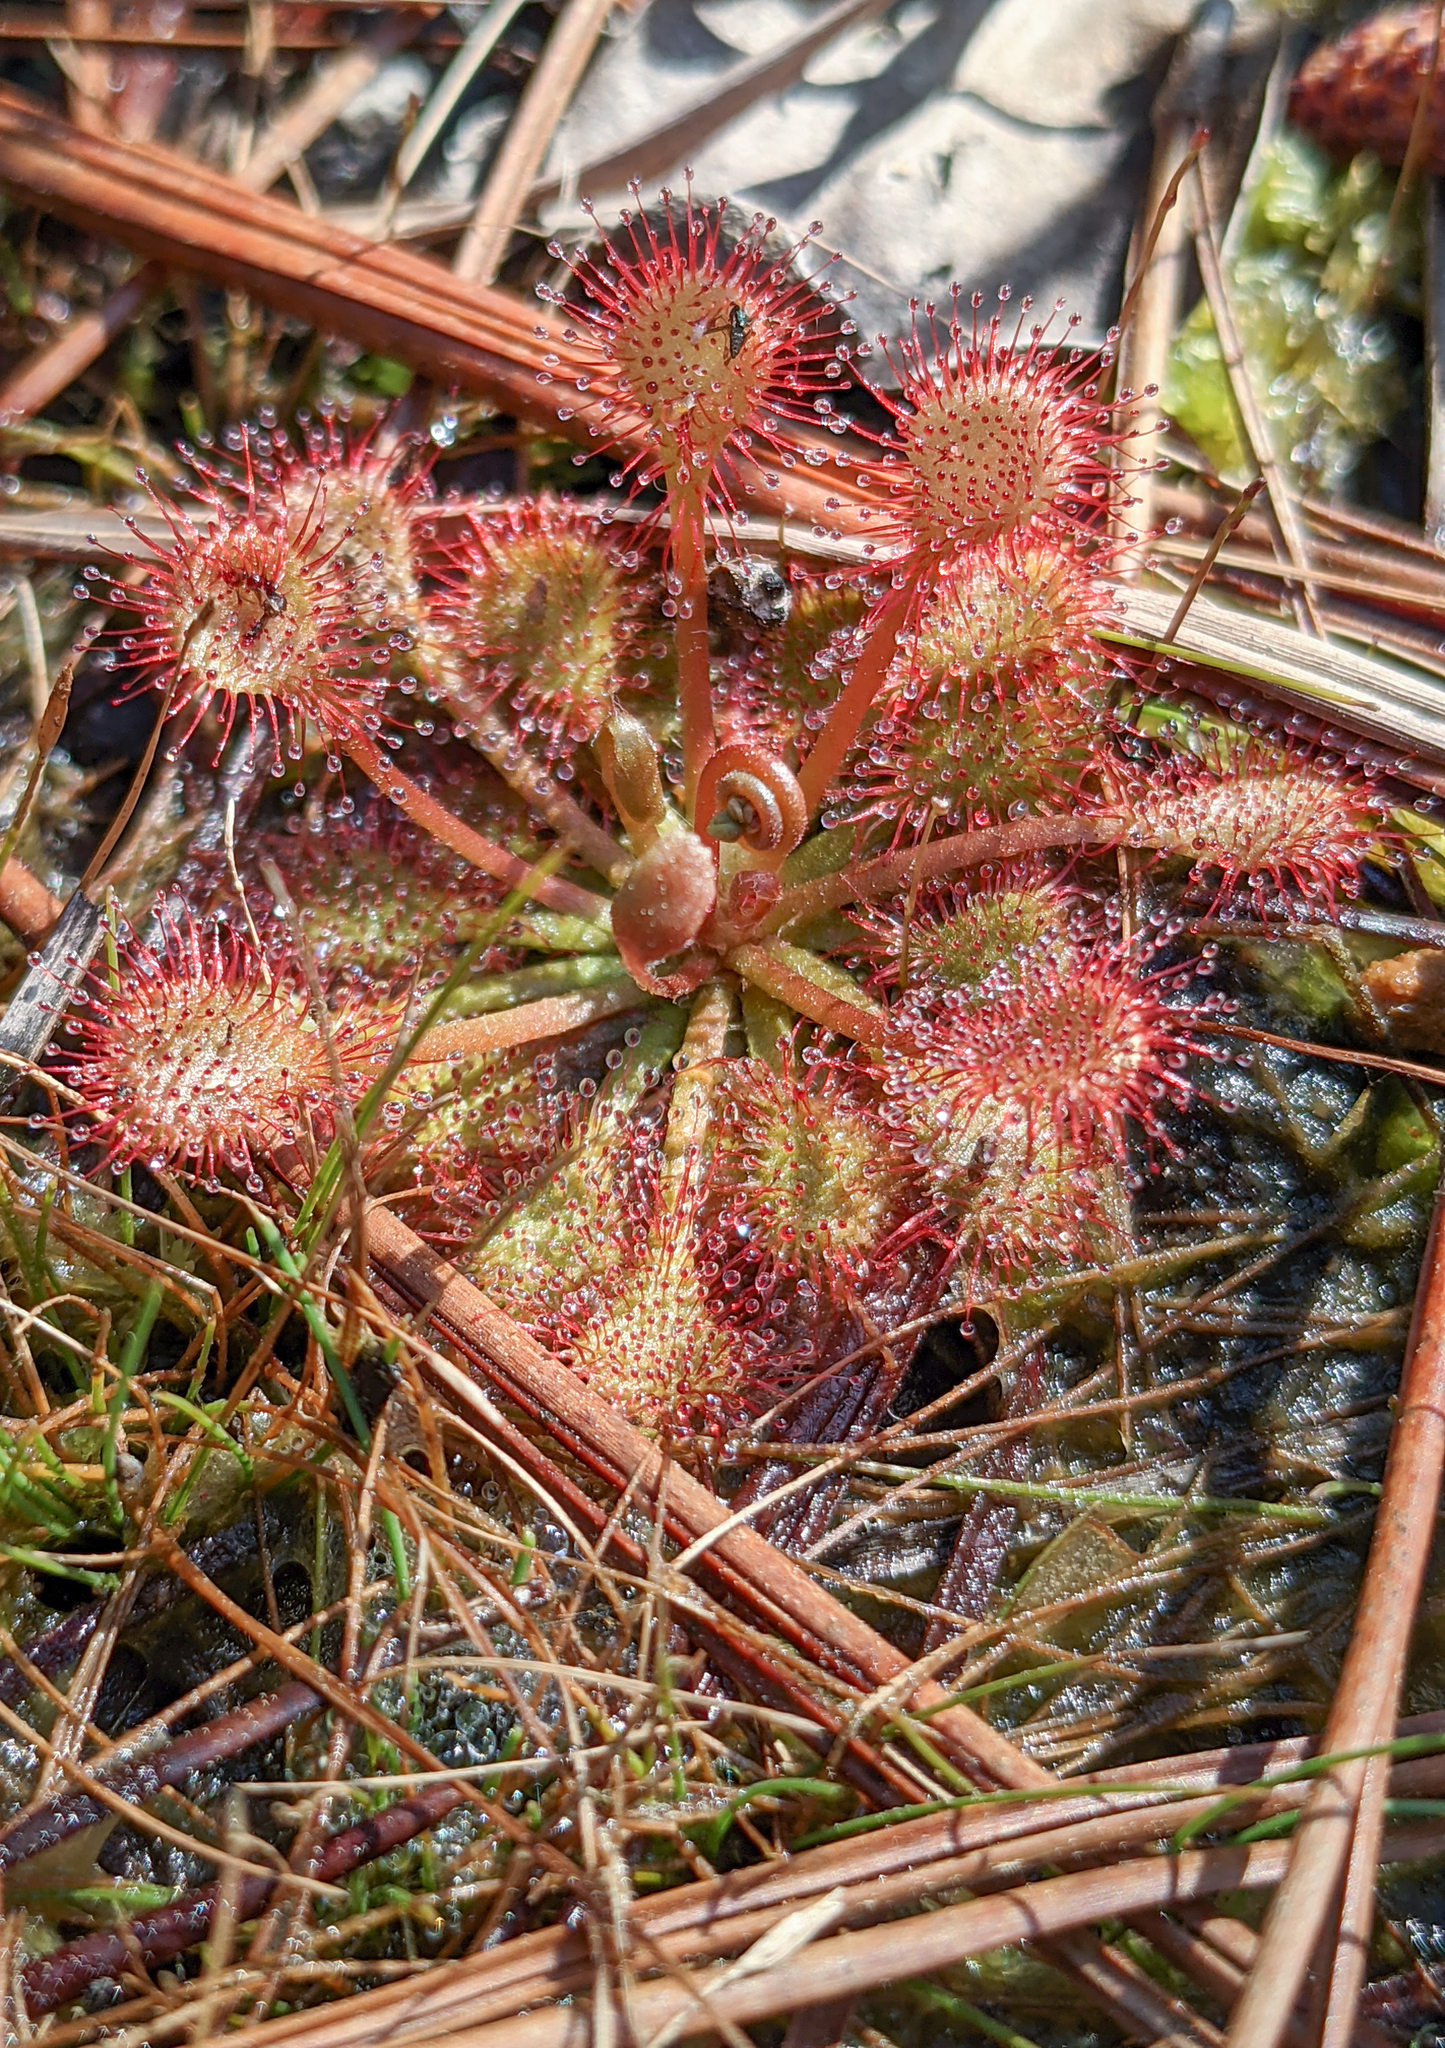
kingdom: Plantae
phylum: Tracheophyta
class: Magnoliopsida
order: Caryophyllales
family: Droseraceae
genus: Drosera
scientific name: Drosera capillaris
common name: Pink sundew
